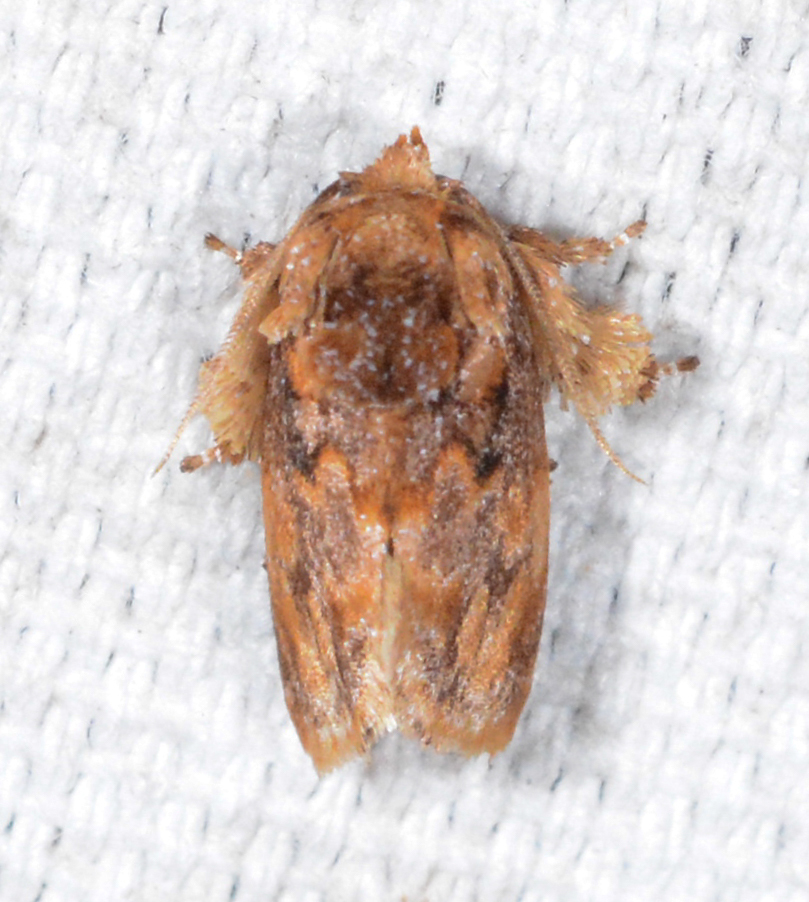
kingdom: Animalia
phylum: Arthropoda
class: Insecta
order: Lepidoptera
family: Limacodidae
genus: Isochaetes
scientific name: Isochaetes beutenmuelleri
